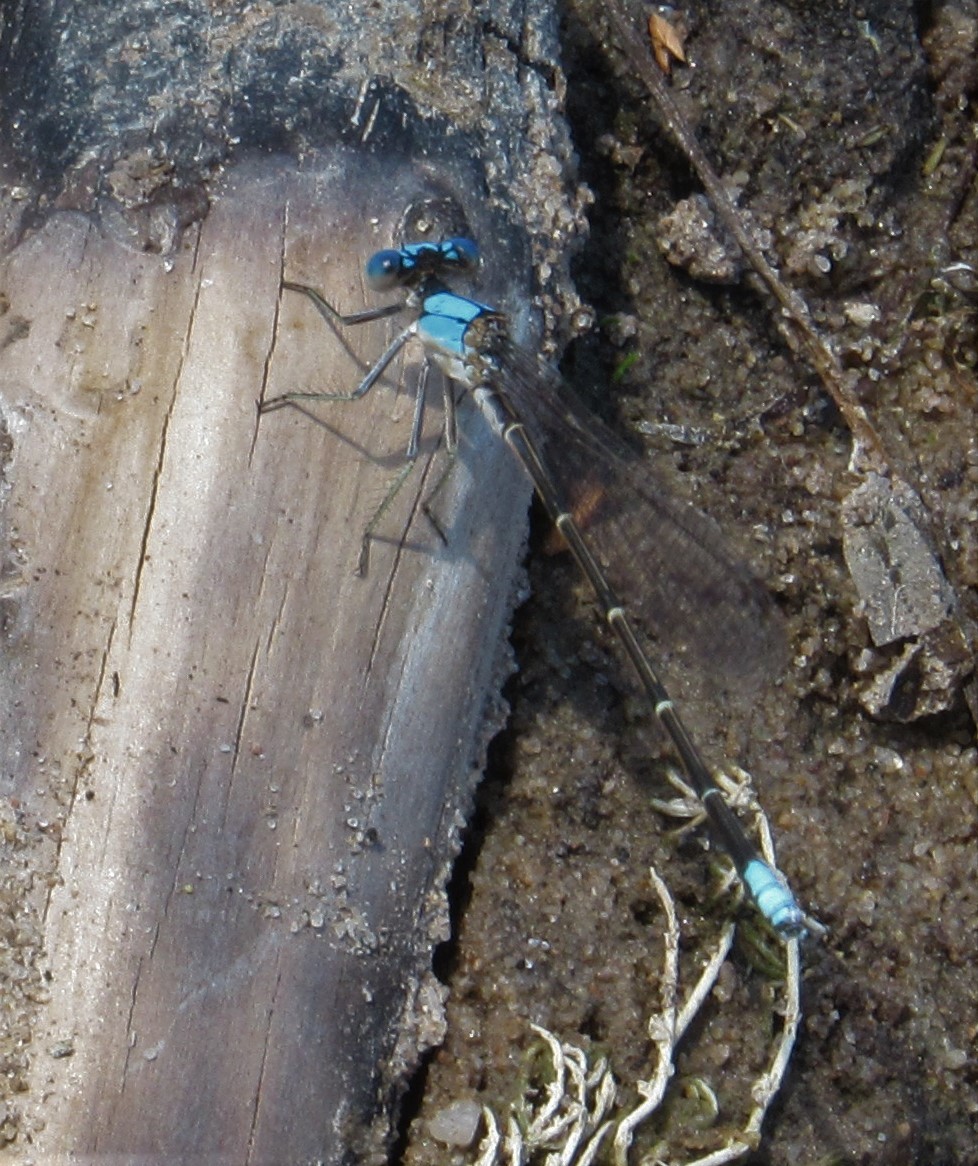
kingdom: Animalia
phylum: Arthropoda
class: Insecta
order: Odonata
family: Coenagrionidae
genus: Argia
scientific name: Argia apicalis
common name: Blue-fronted dancer
